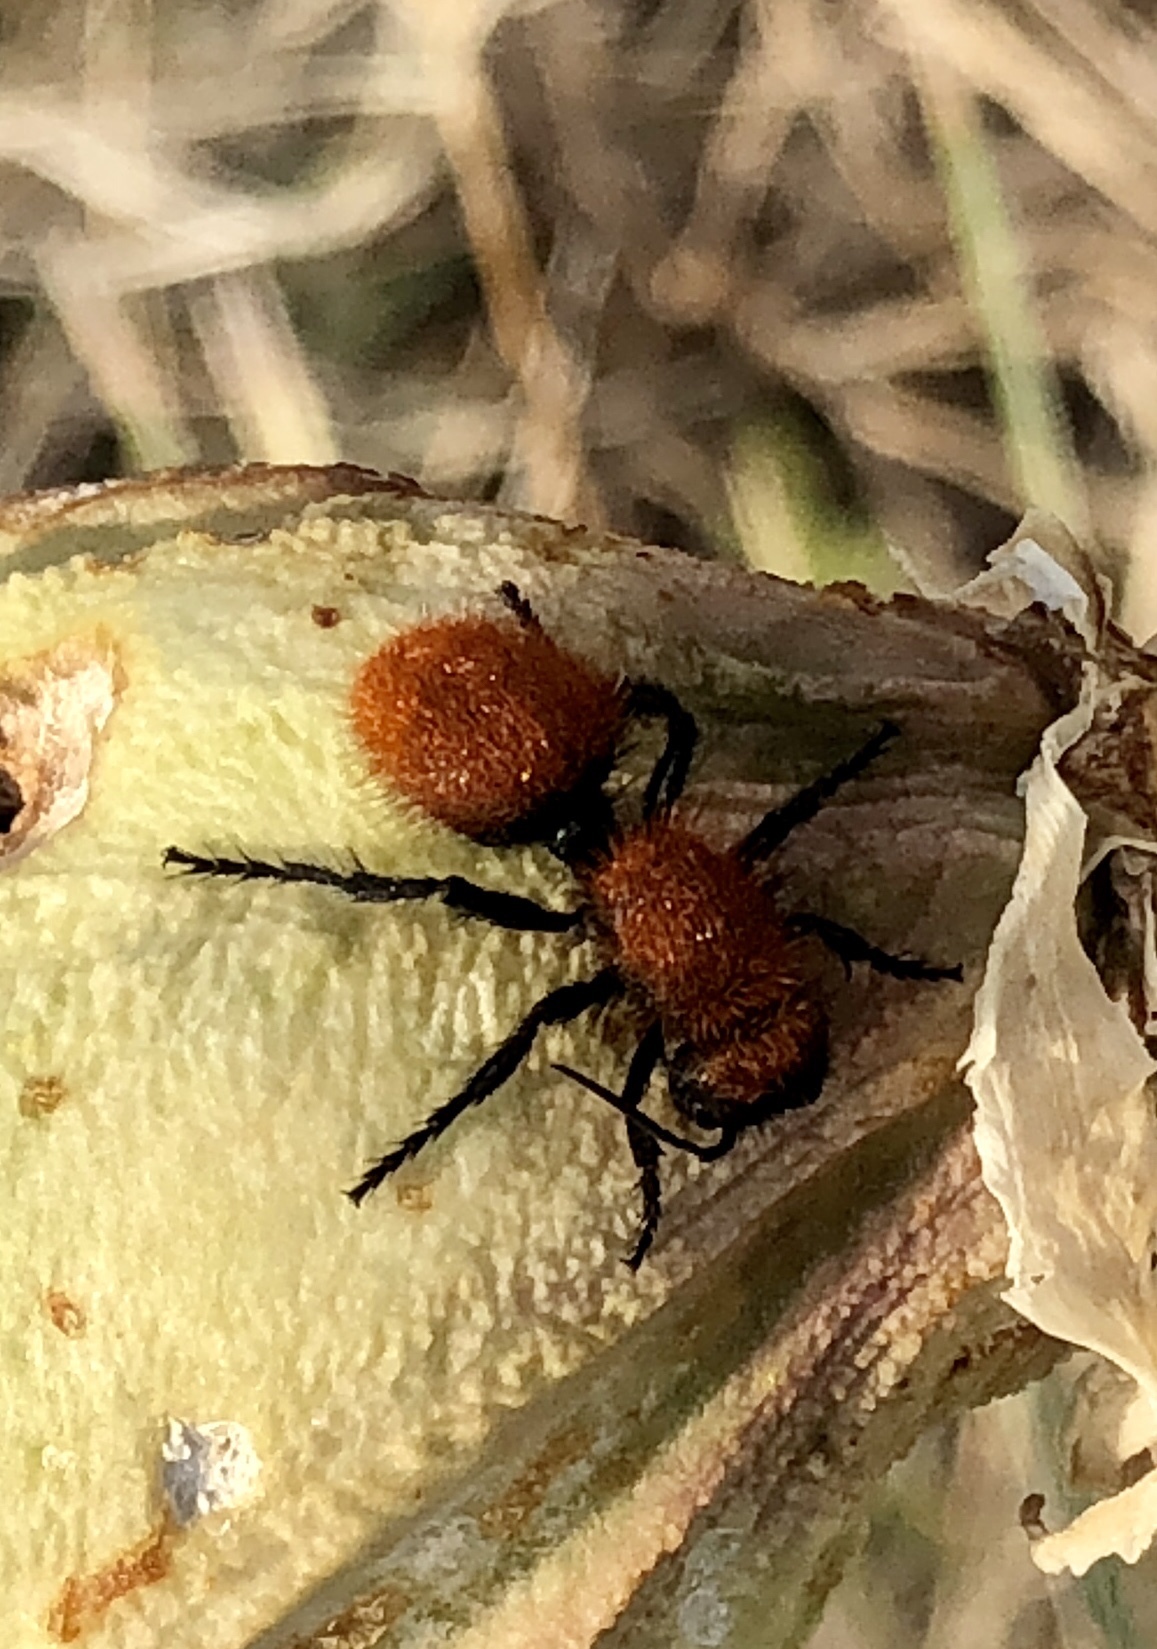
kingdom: Animalia
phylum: Arthropoda
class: Insecta
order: Hymenoptera
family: Mutillidae
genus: Dasymutilla
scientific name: Dasymutilla
